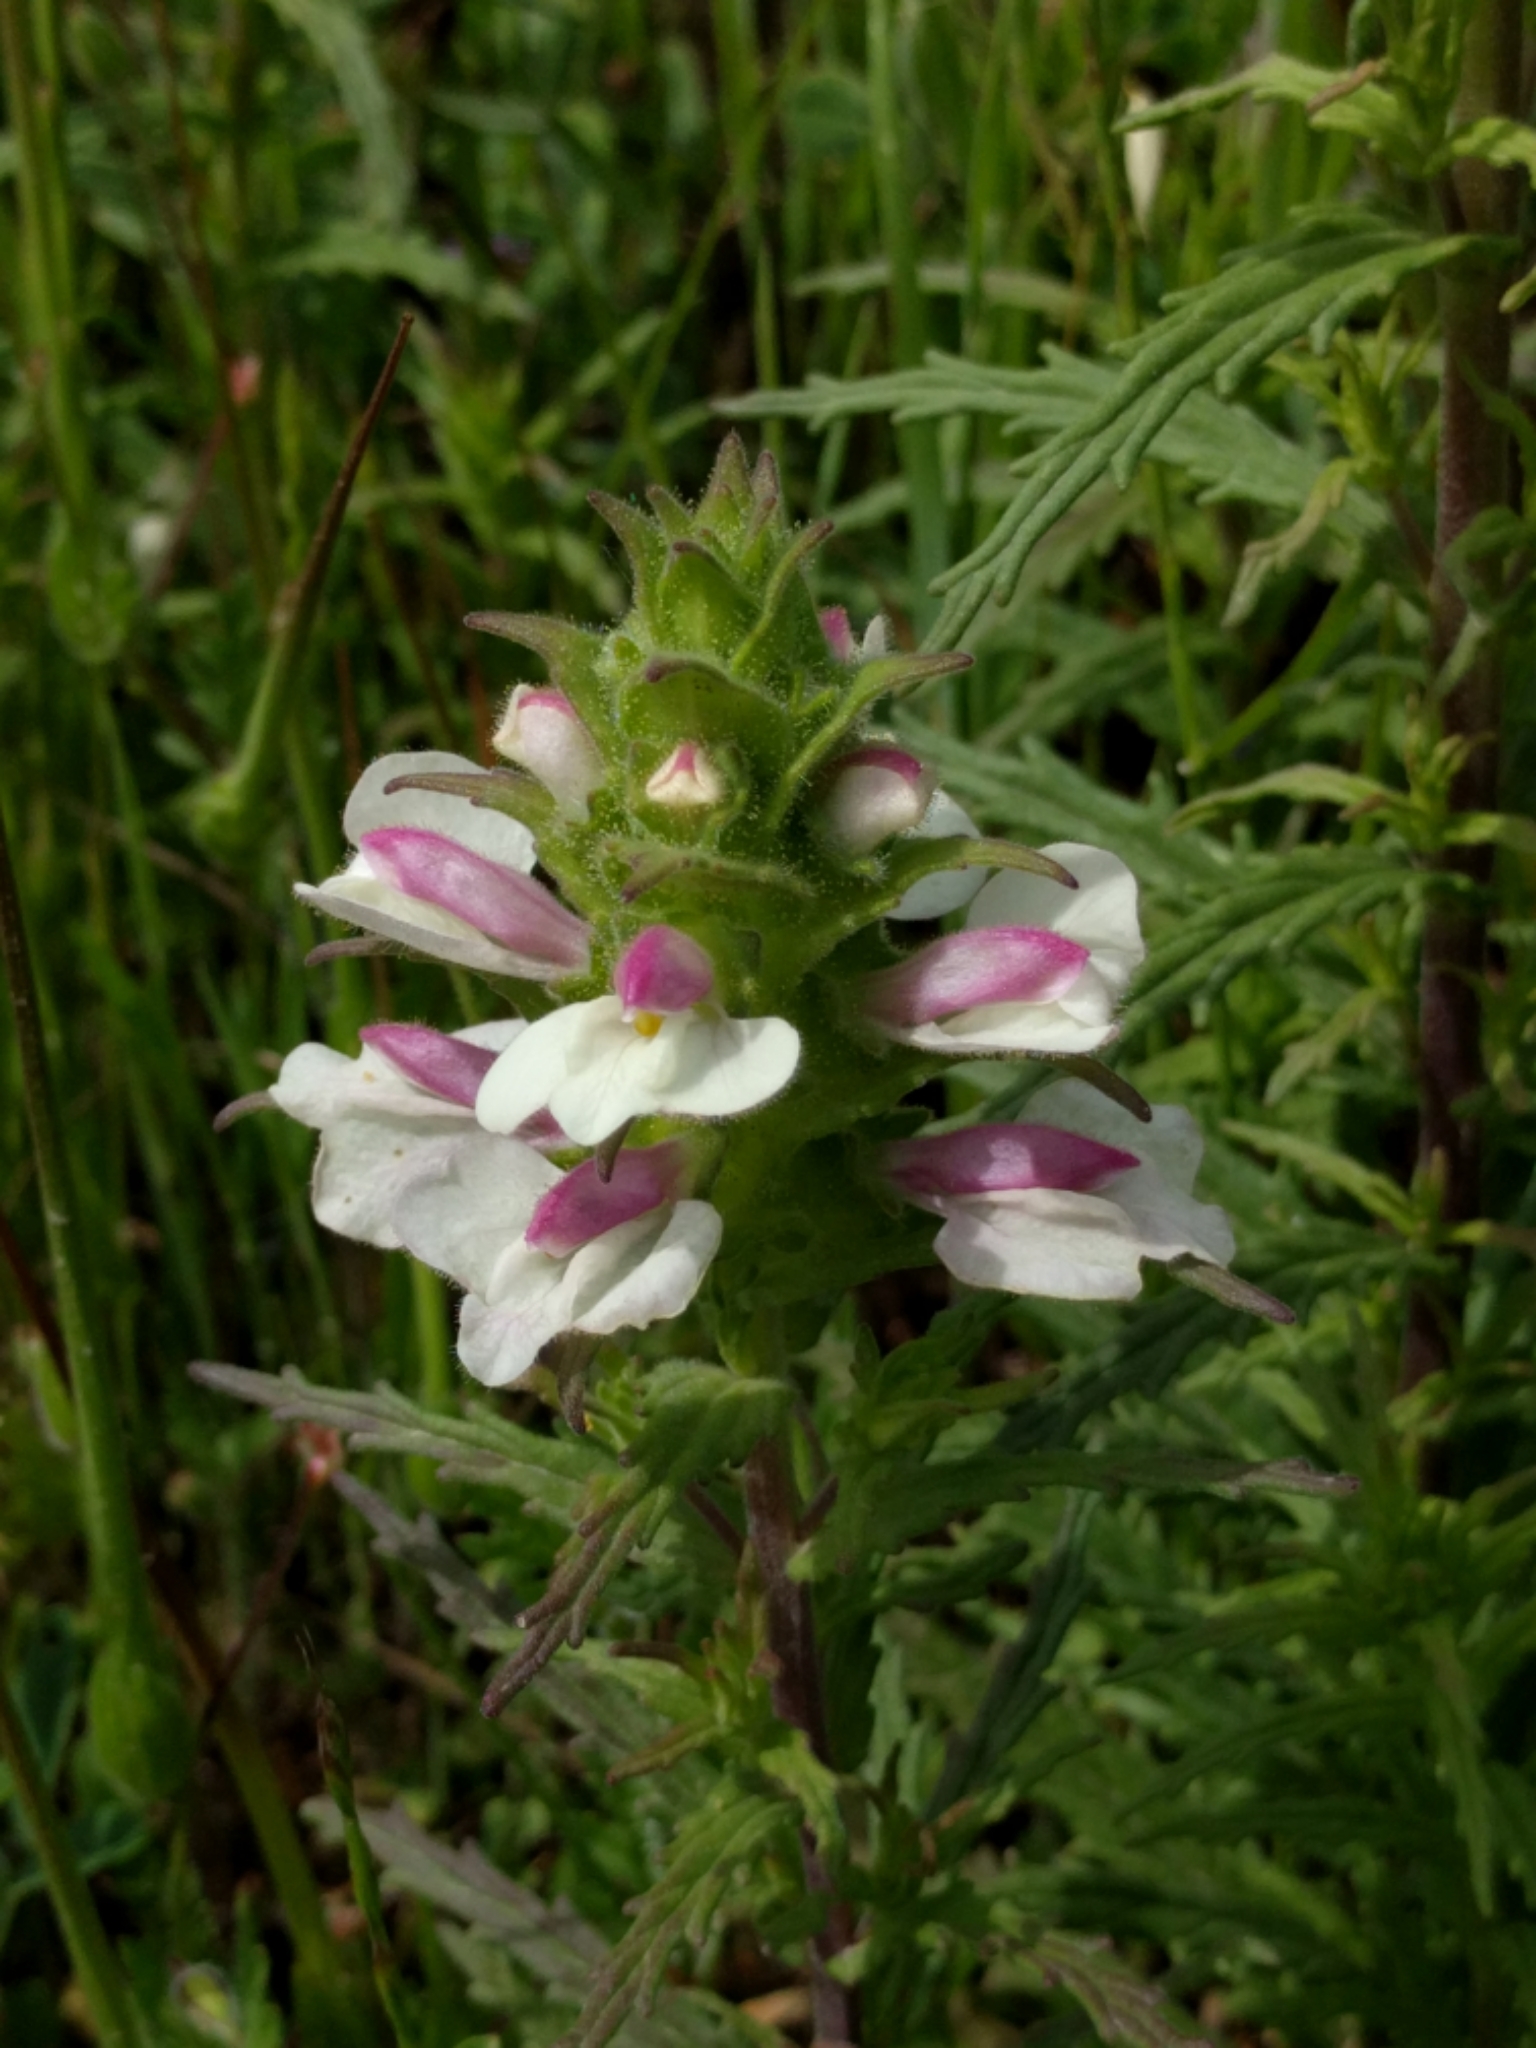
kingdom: Plantae
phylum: Tracheophyta
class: Magnoliopsida
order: Lamiales
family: Orobanchaceae
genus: Bellardia
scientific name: Bellardia trixago
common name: Mediterranean lineseed
